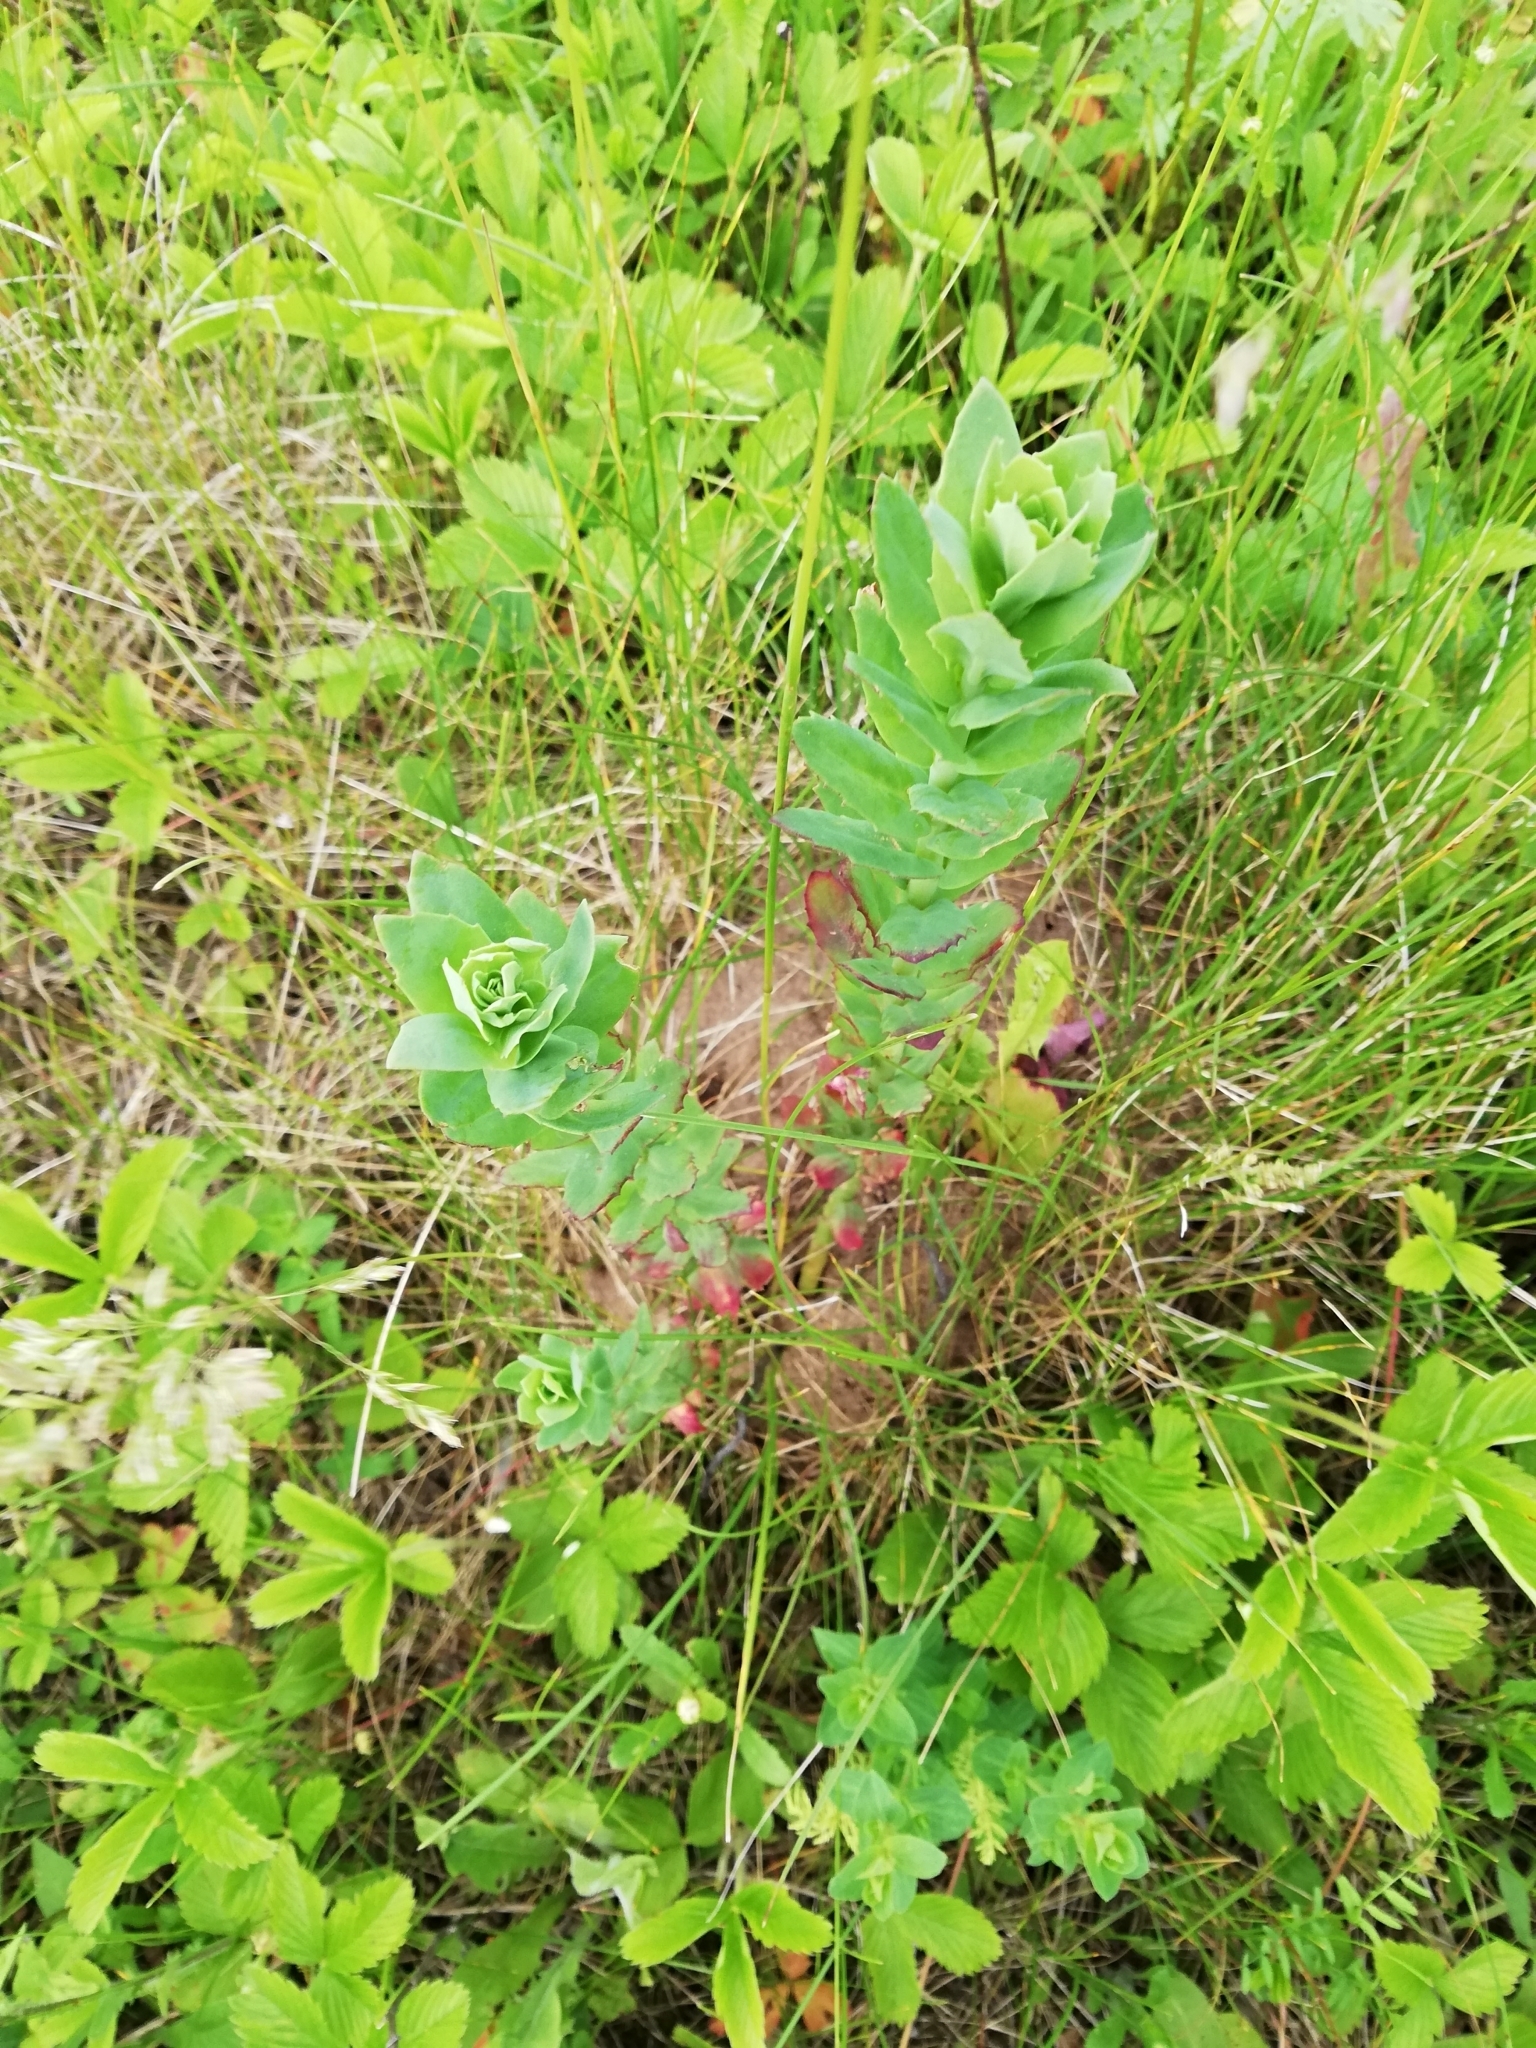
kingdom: Plantae
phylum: Tracheophyta
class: Magnoliopsida
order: Saxifragales
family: Crassulaceae
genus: Hylotelephium
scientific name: Hylotelephium telephium
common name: Live-forever
